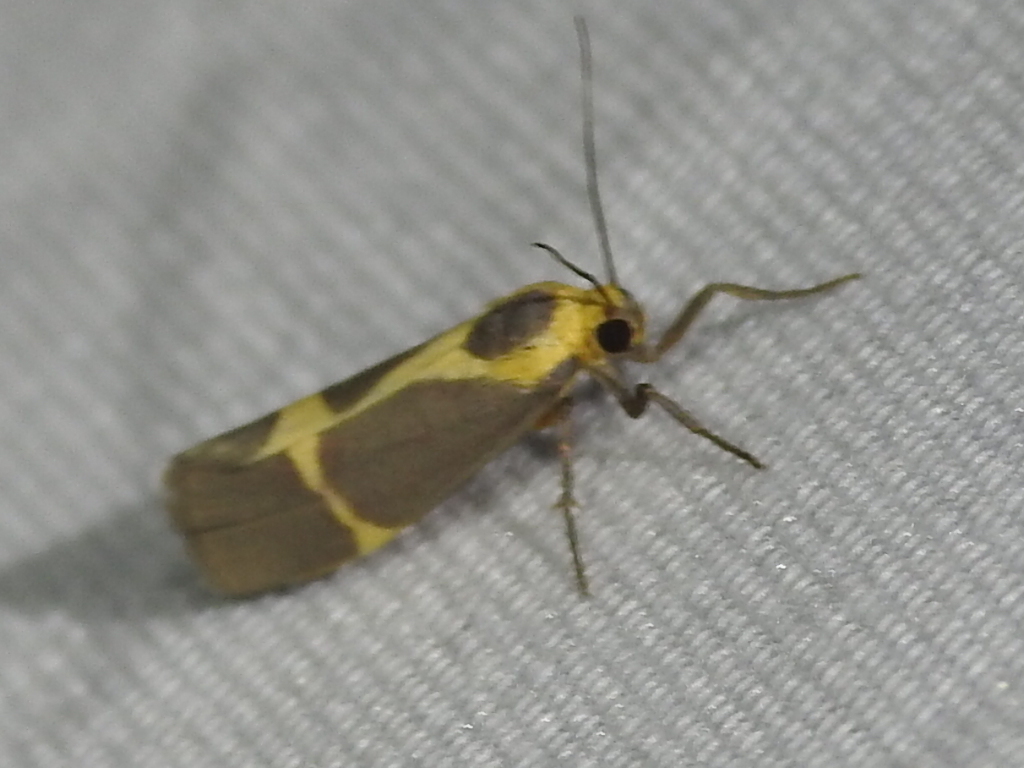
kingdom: Animalia
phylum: Arthropoda
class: Insecta
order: Lepidoptera
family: Erebidae
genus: Cisthene
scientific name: Cisthene tenuifascia
